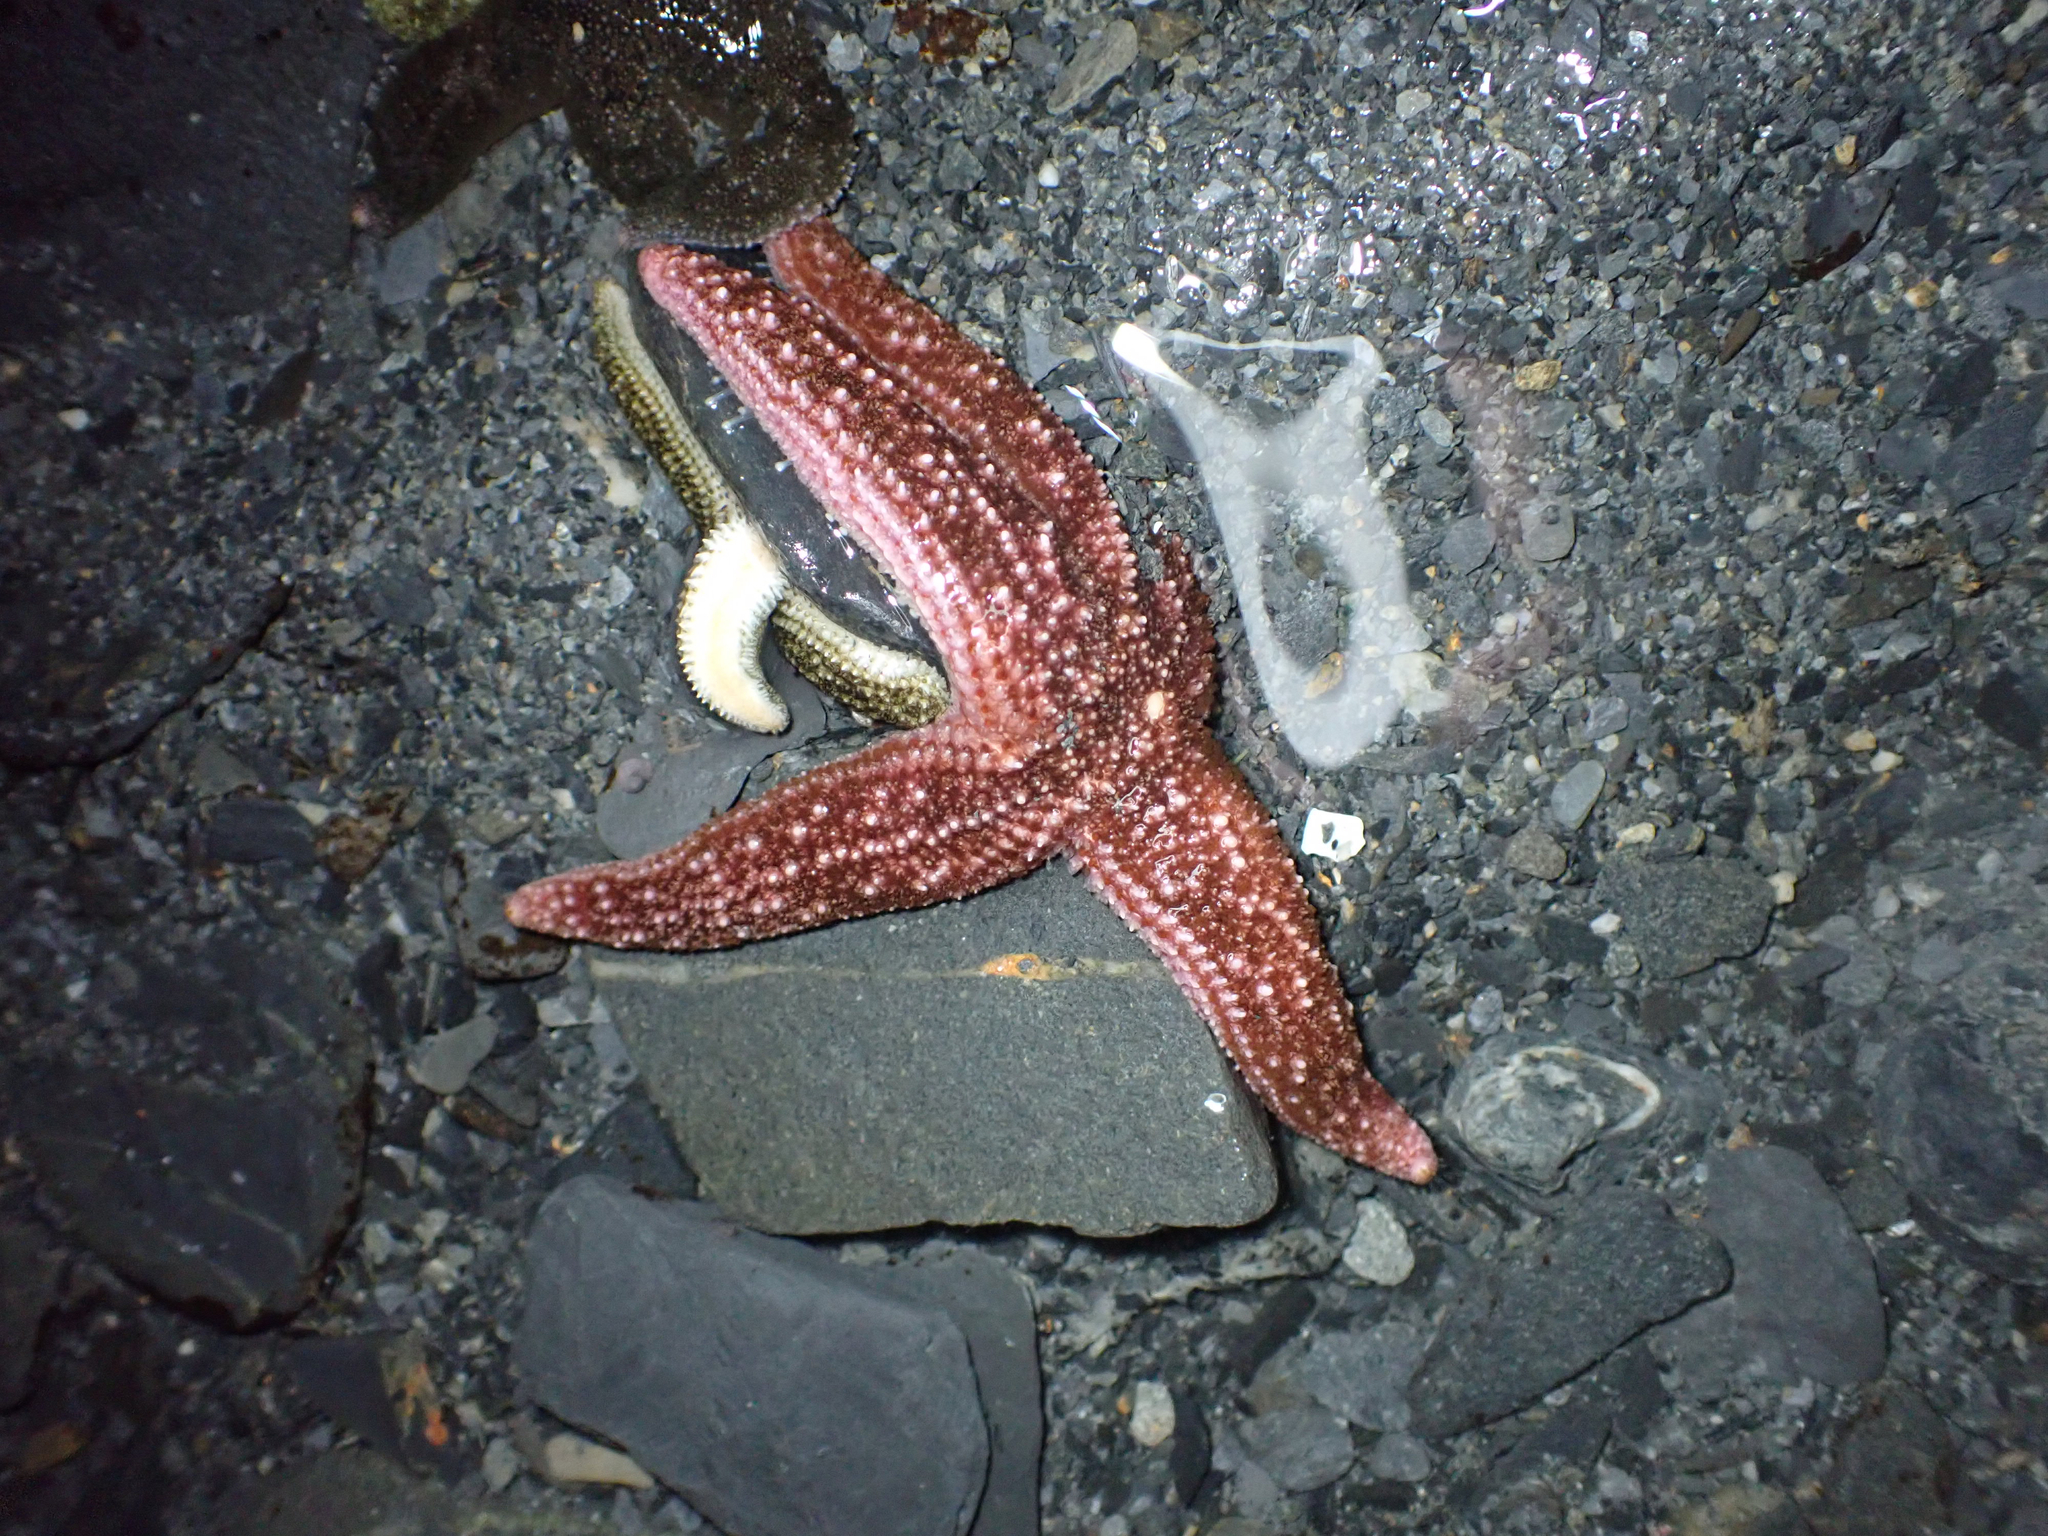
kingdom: Animalia
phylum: Echinodermata
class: Asteroidea
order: Forcipulatida
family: Asteriidae
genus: Evasterias
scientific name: Evasterias troschelii
